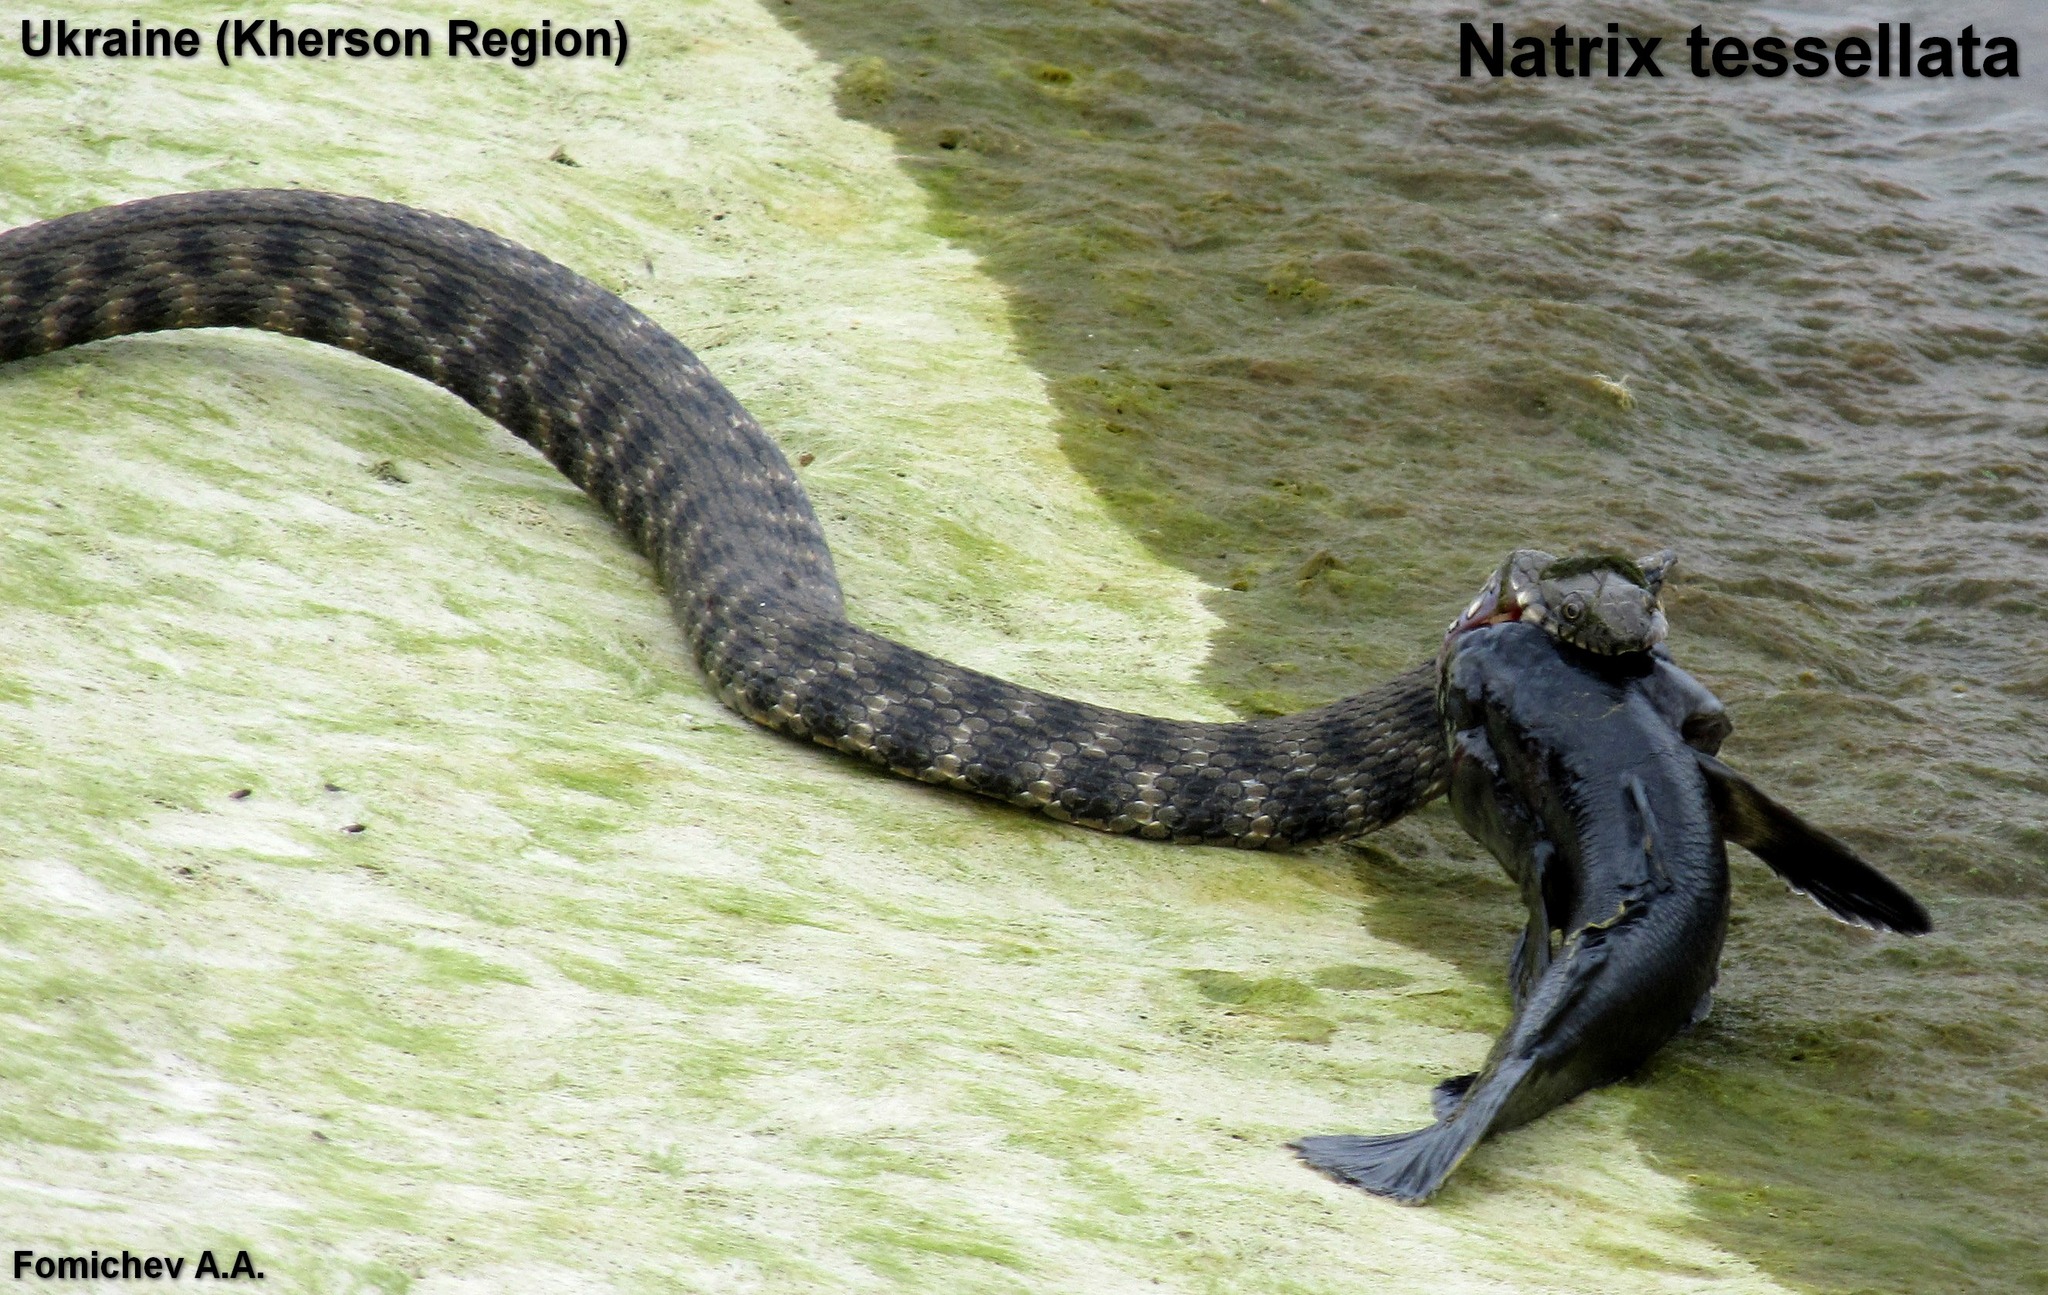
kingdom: Animalia
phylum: Chordata
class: Squamata
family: Colubridae
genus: Natrix
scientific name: Natrix tessellata
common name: Dice snake
